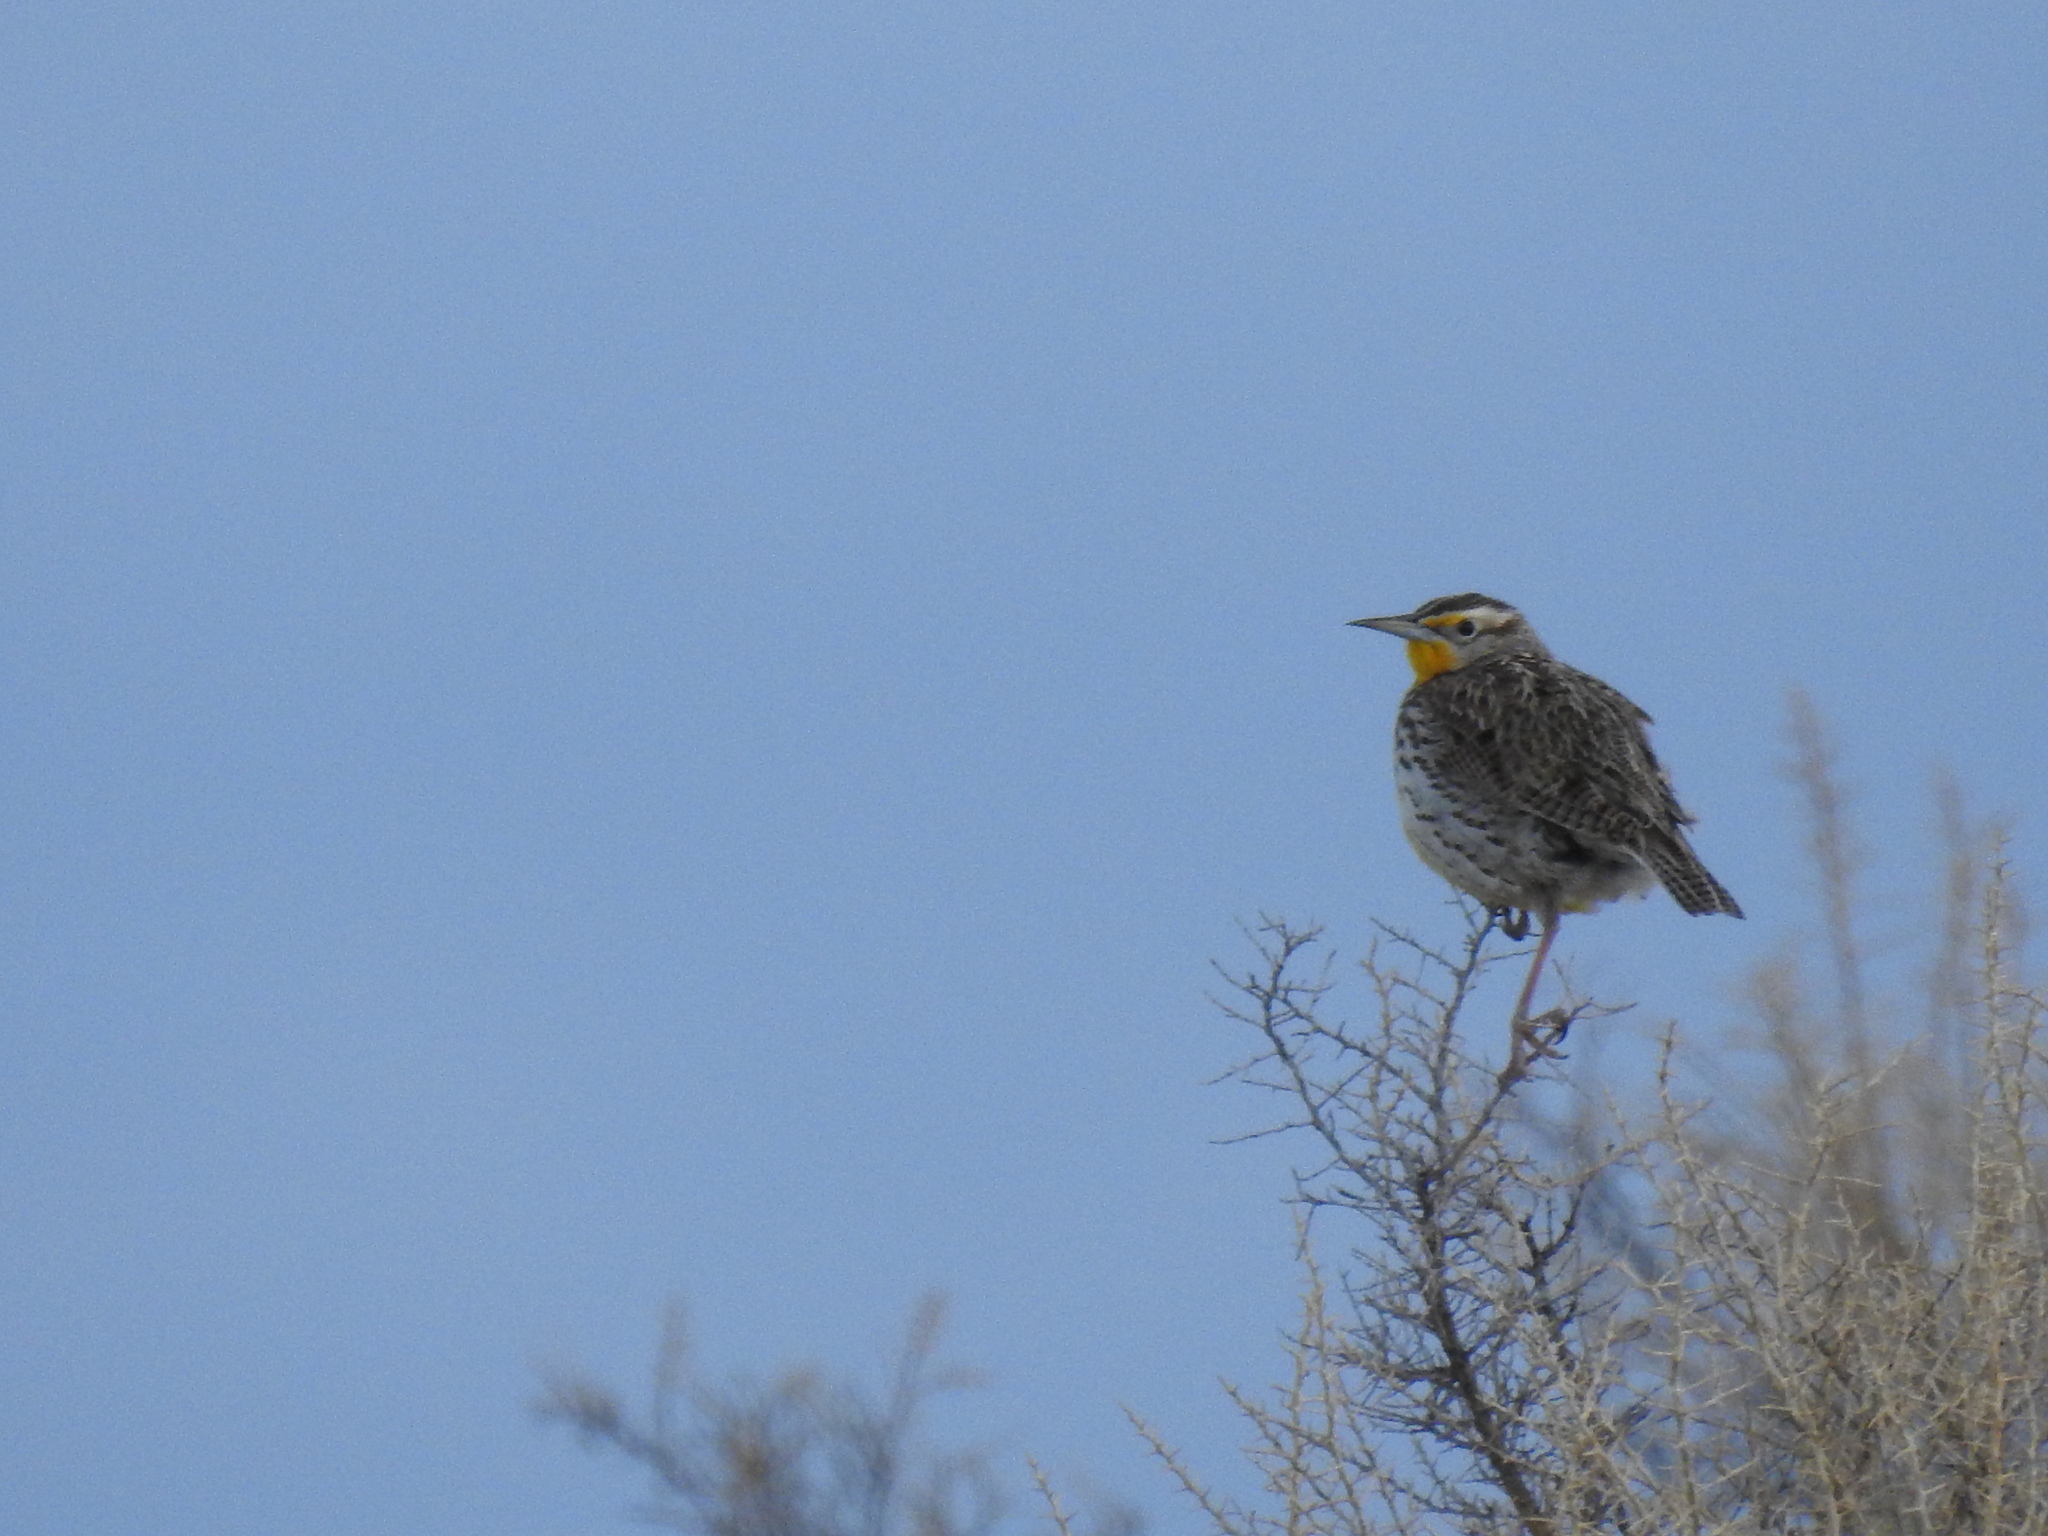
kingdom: Animalia
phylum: Chordata
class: Aves
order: Passeriformes
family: Icteridae
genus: Sturnella
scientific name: Sturnella neglecta
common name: Western meadowlark
